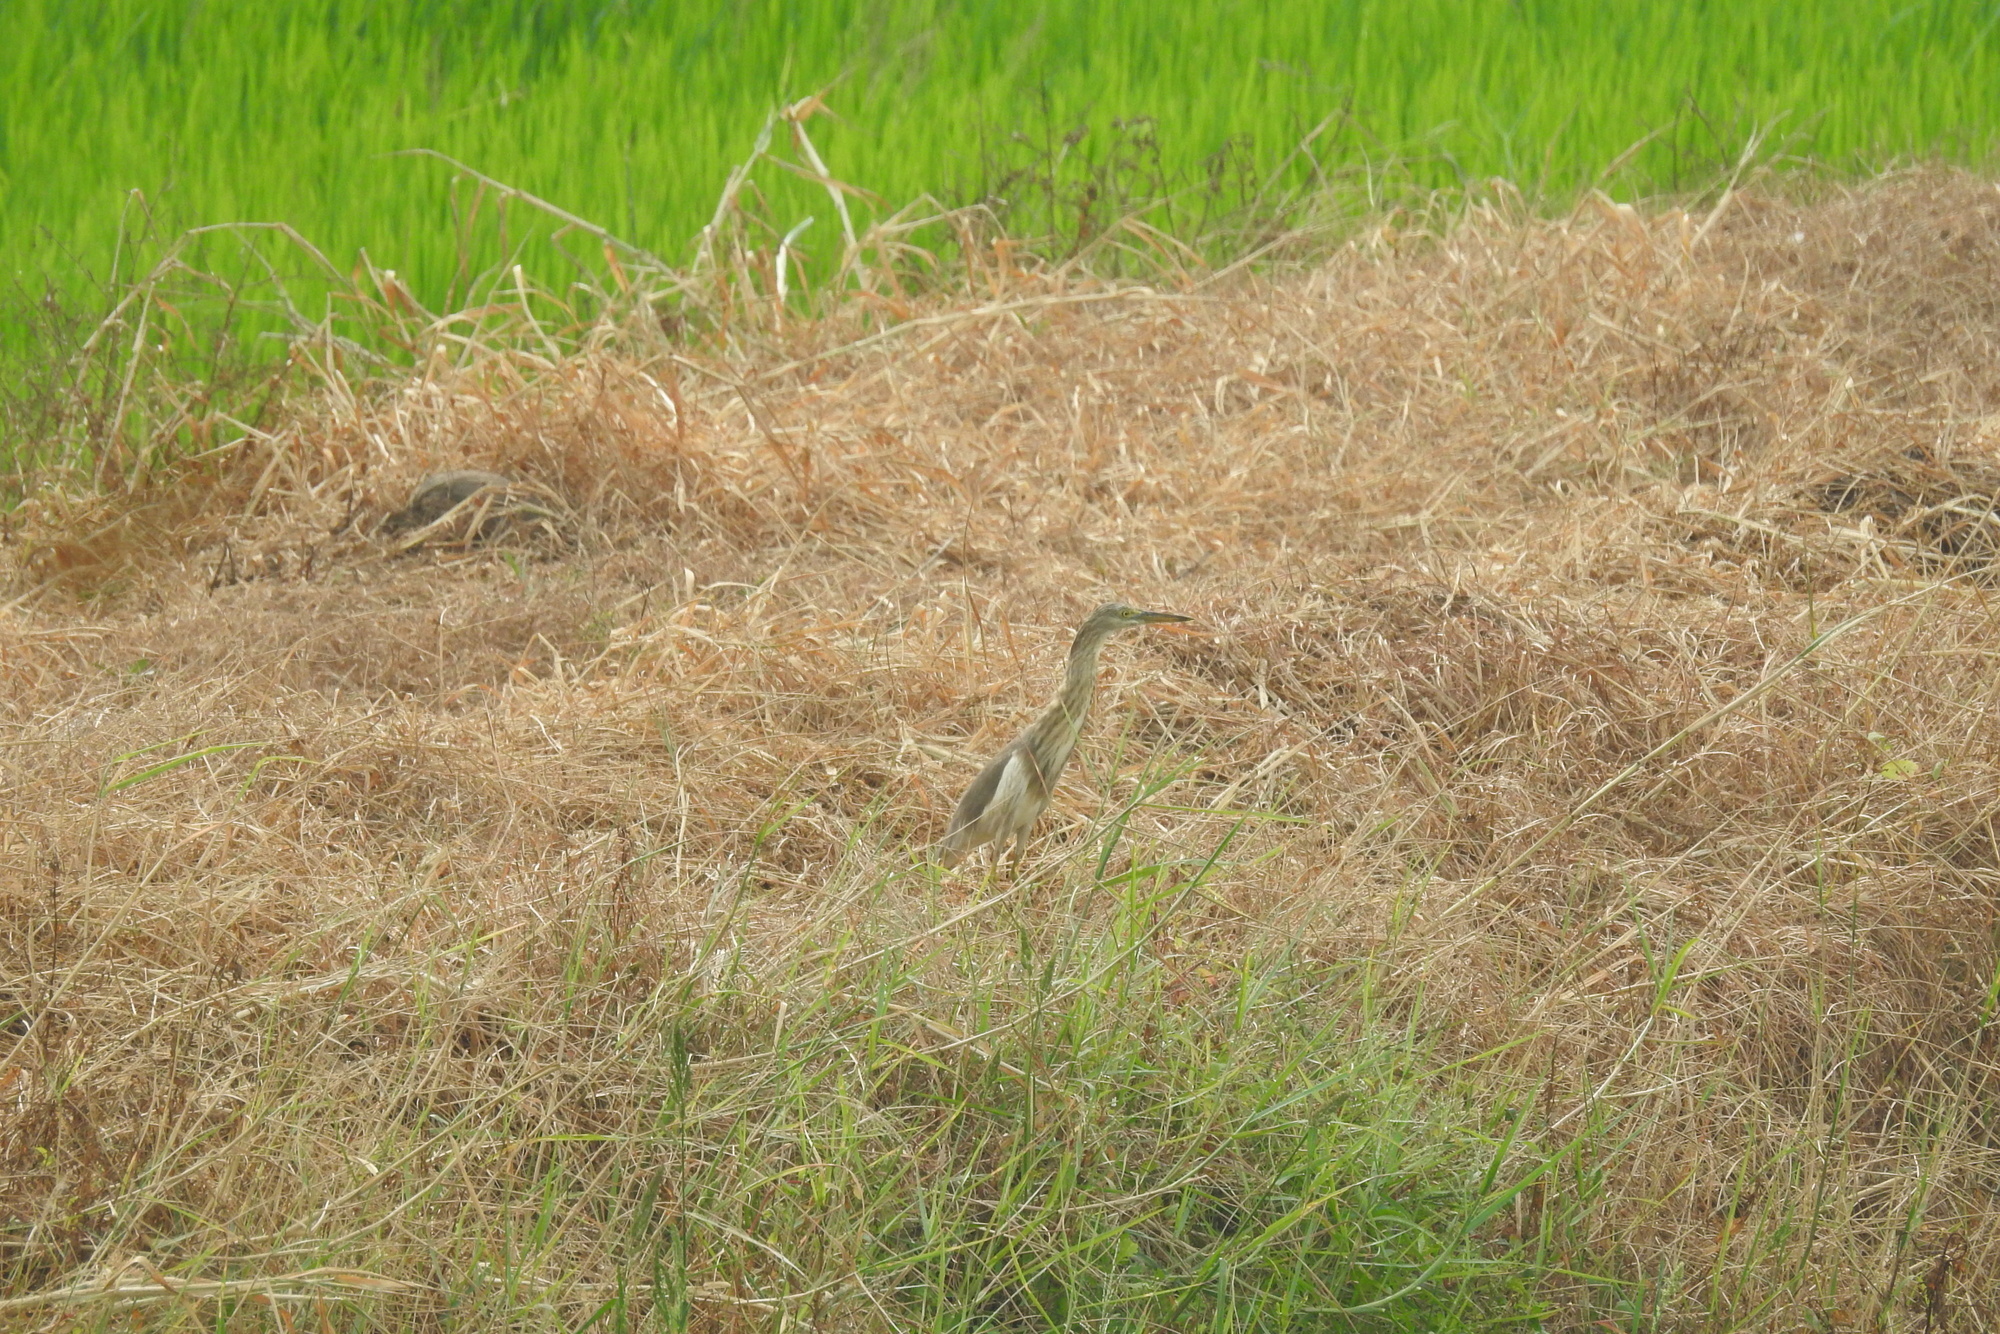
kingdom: Animalia
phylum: Chordata
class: Aves
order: Pelecaniformes
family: Ardeidae
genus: Ardeola
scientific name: Ardeola grayii
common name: Indian pond heron
